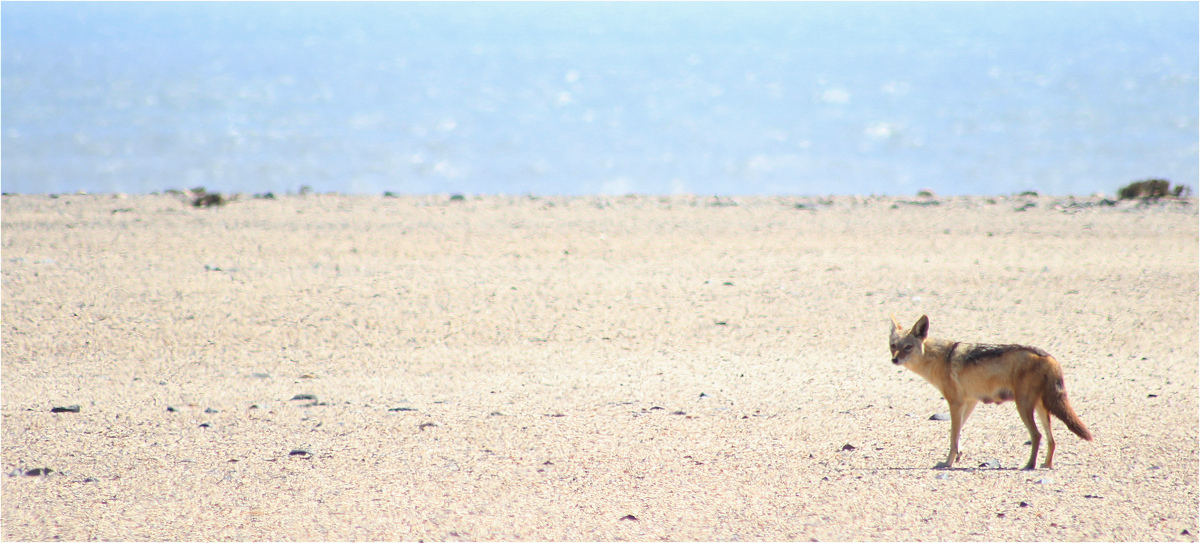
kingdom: Animalia
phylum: Chordata
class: Mammalia
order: Carnivora
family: Canidae
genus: Lupulella
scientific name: Lupulella
